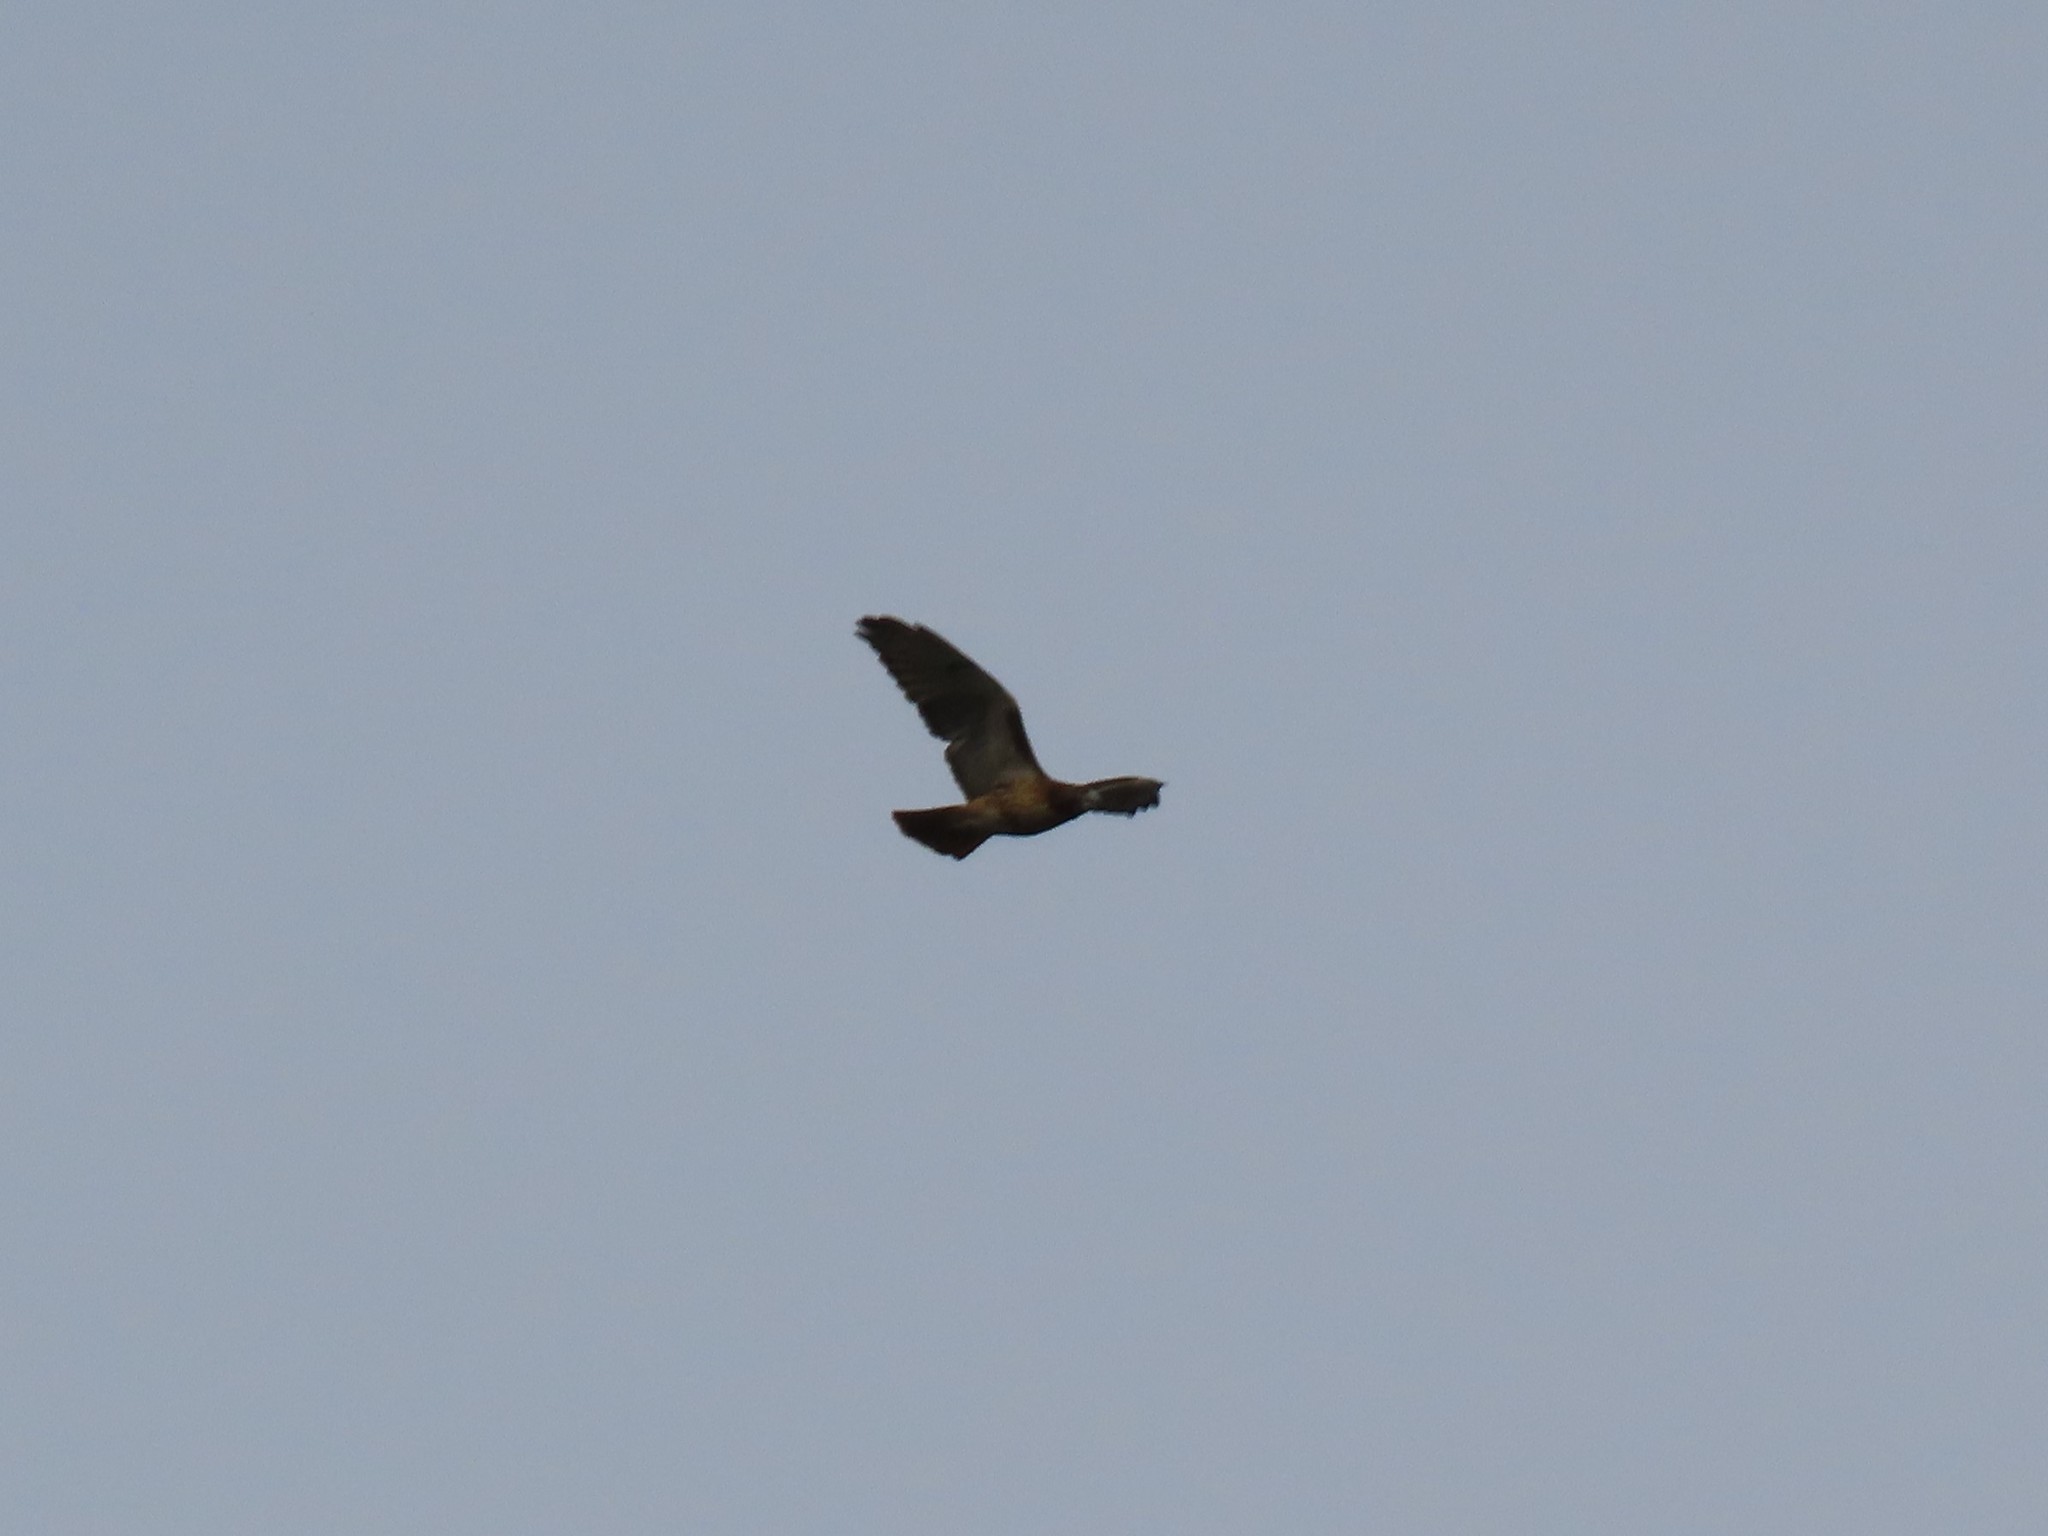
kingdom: Animalia
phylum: Chordata
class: Aves
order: Accipitriformes
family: Accipitridae
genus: Buteo
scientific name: Buteo jamaicensis
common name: Red-tailed hawk
